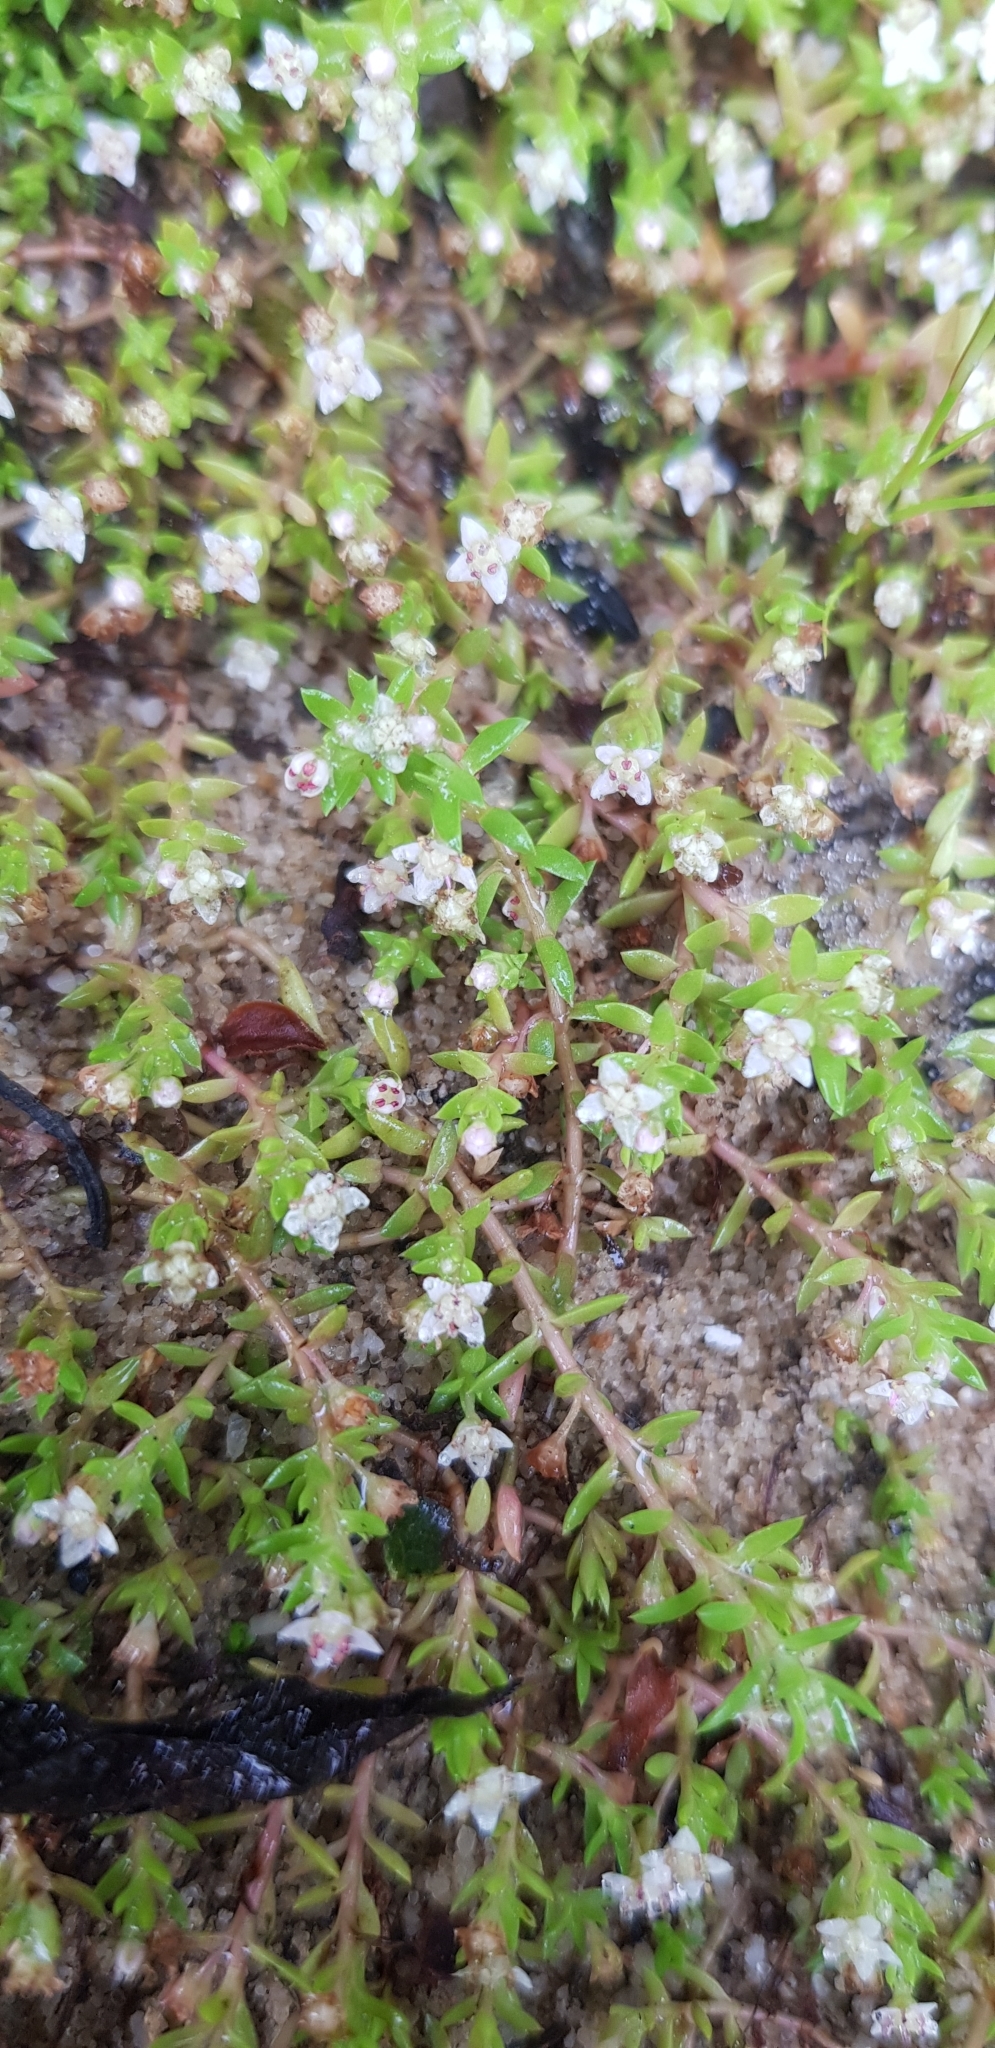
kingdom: Plantae
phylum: Tracheophyta
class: Magnoliopsida
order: Saxifragales
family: Crassulaceae
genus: Crassula
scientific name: Crassula helmsii
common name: New zealand pigmyweed
